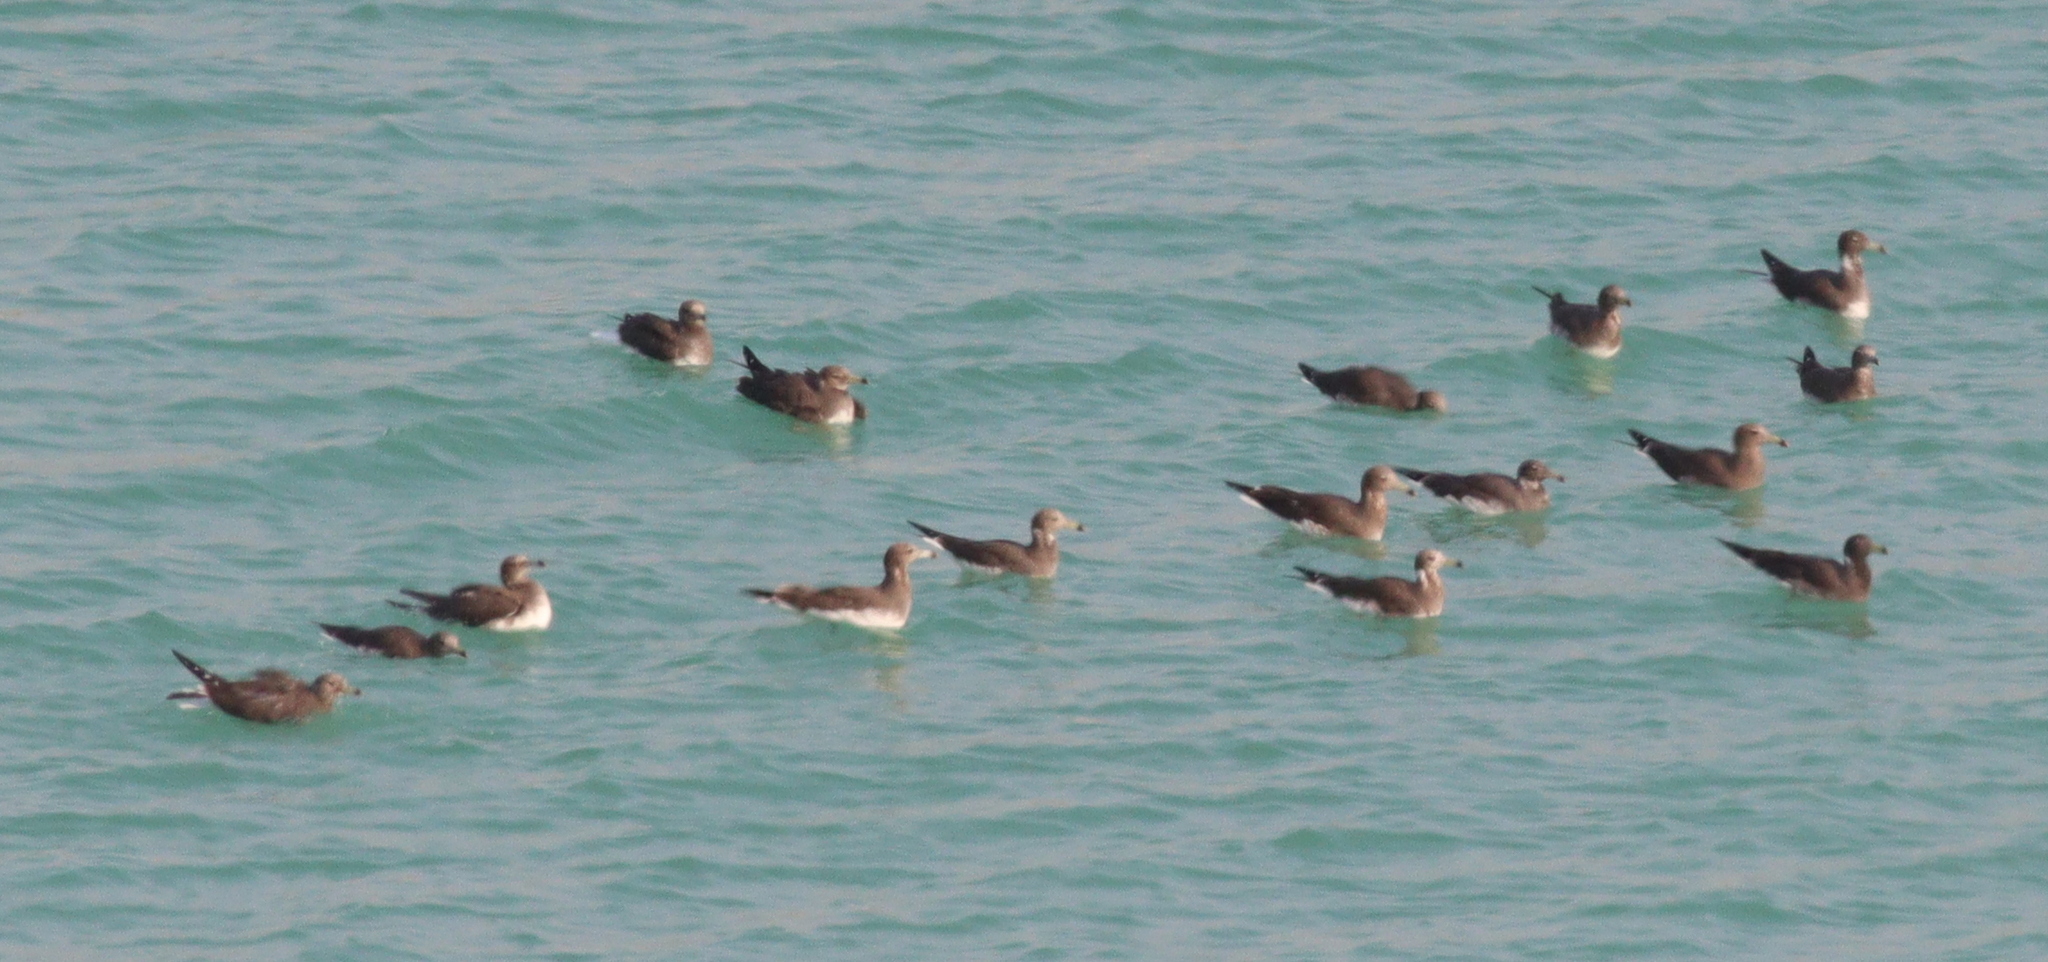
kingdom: Animalia
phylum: Chordata
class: Aves
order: Charadriiformes
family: Laridae
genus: Ichthyaetus
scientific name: Ichthyaetus hemprichii
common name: Sooty gull
